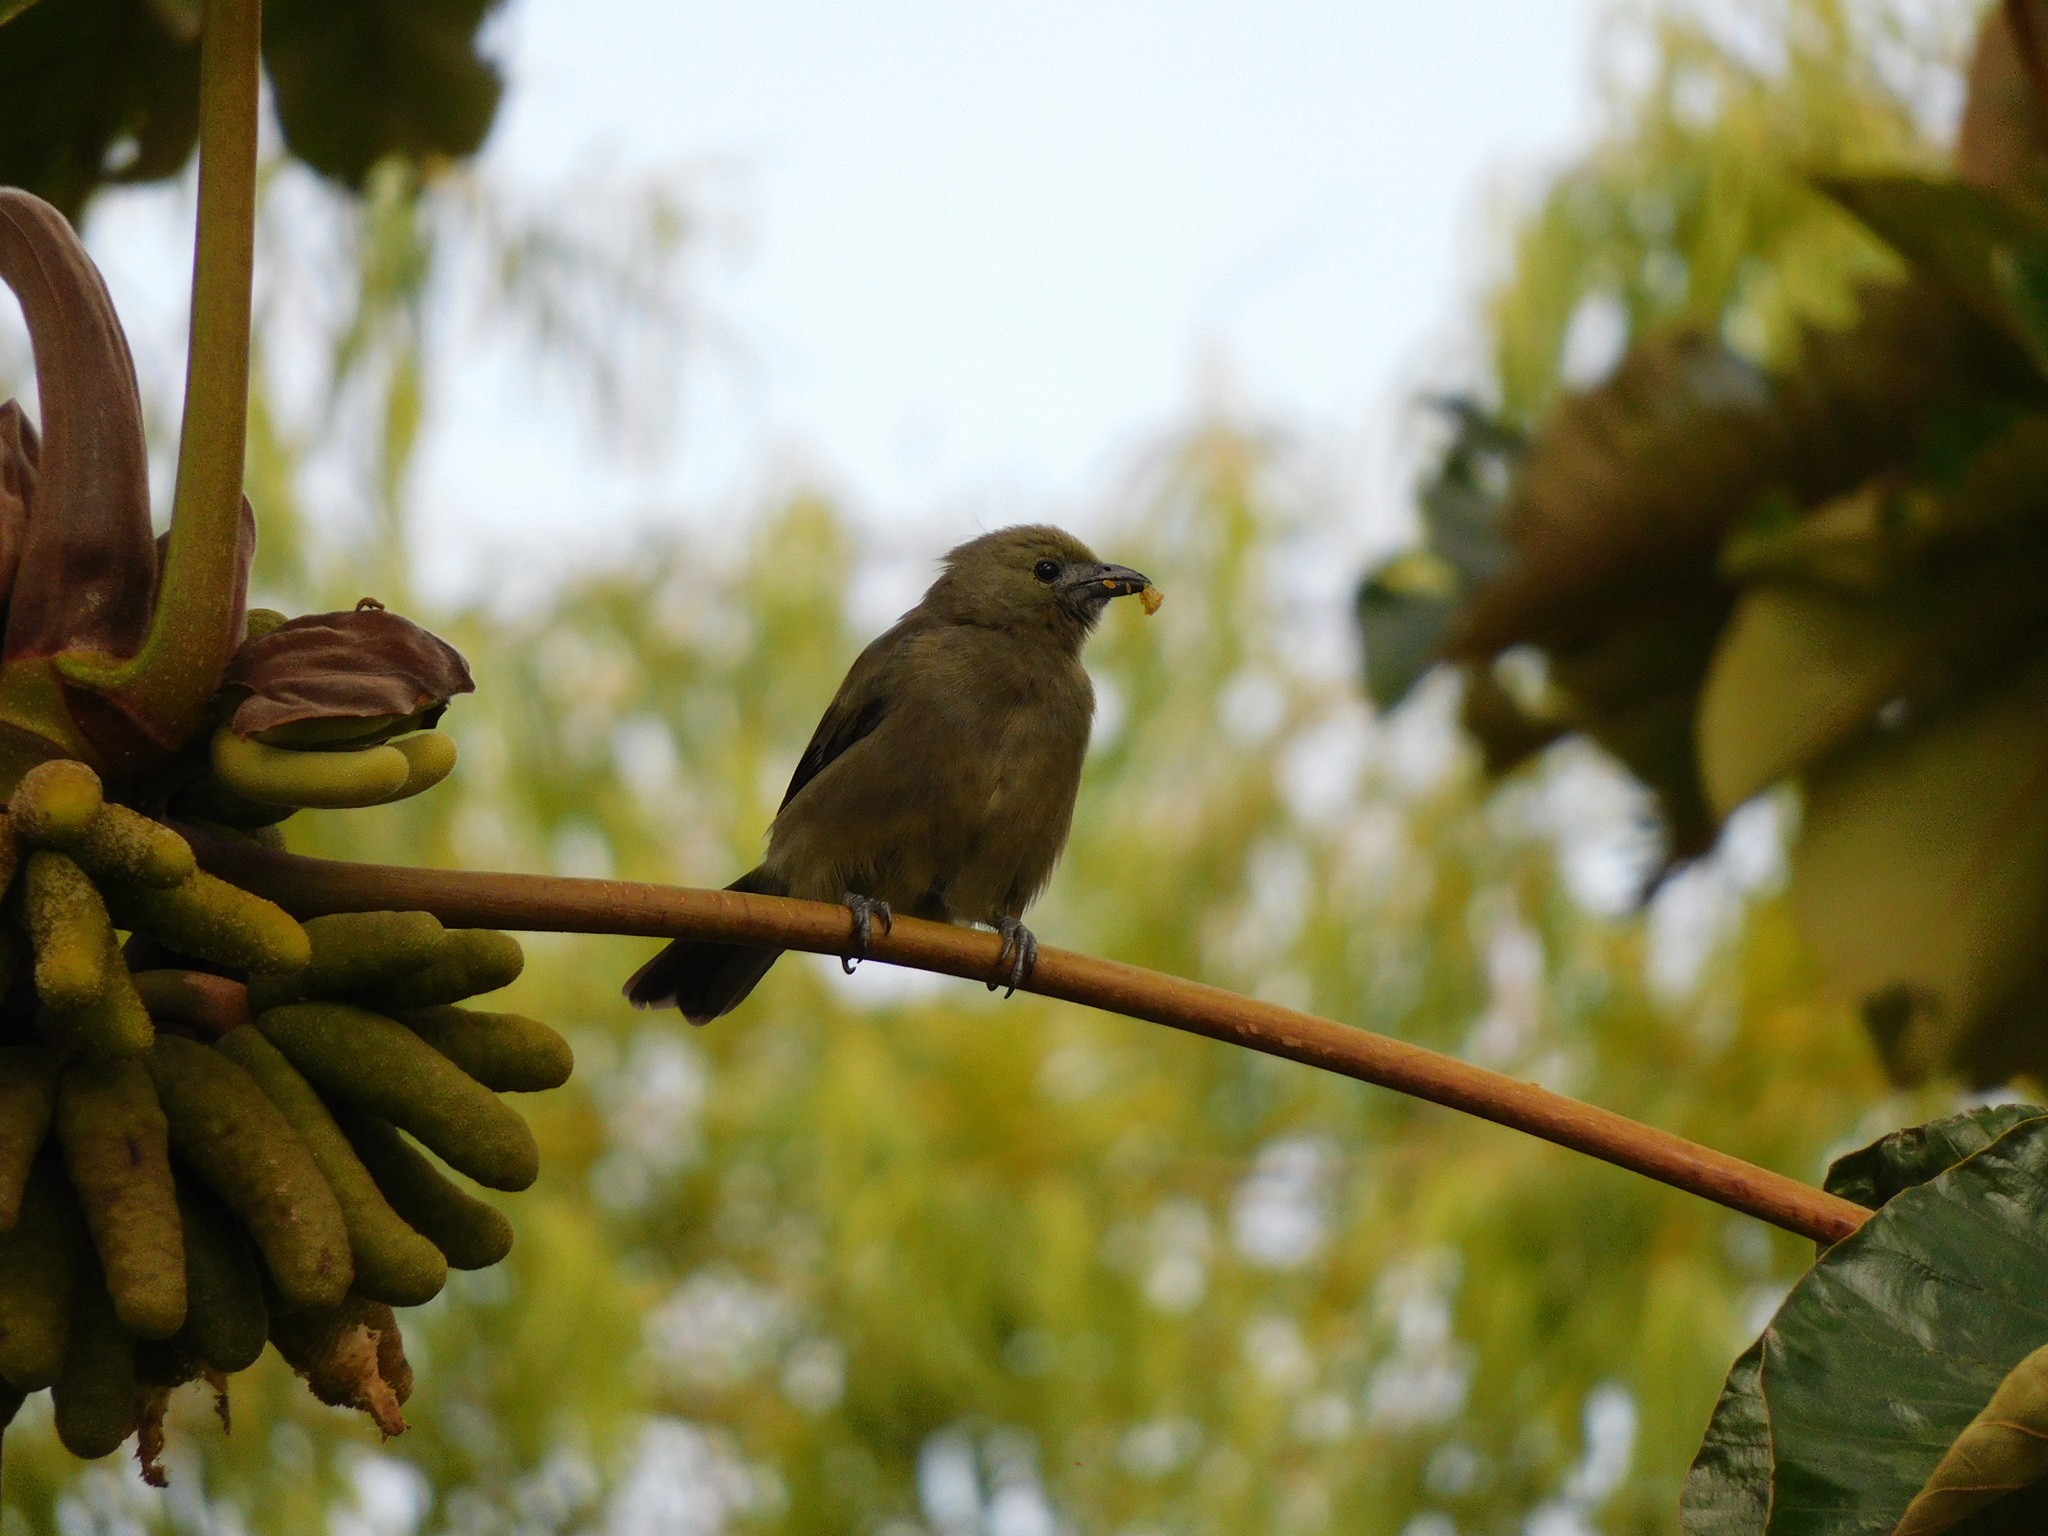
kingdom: Animalia
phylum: Chordata
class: Aves
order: Passeriformes
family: Thraupidae
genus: Thraupis
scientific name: Thraupis palmarum
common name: Palm tanager
